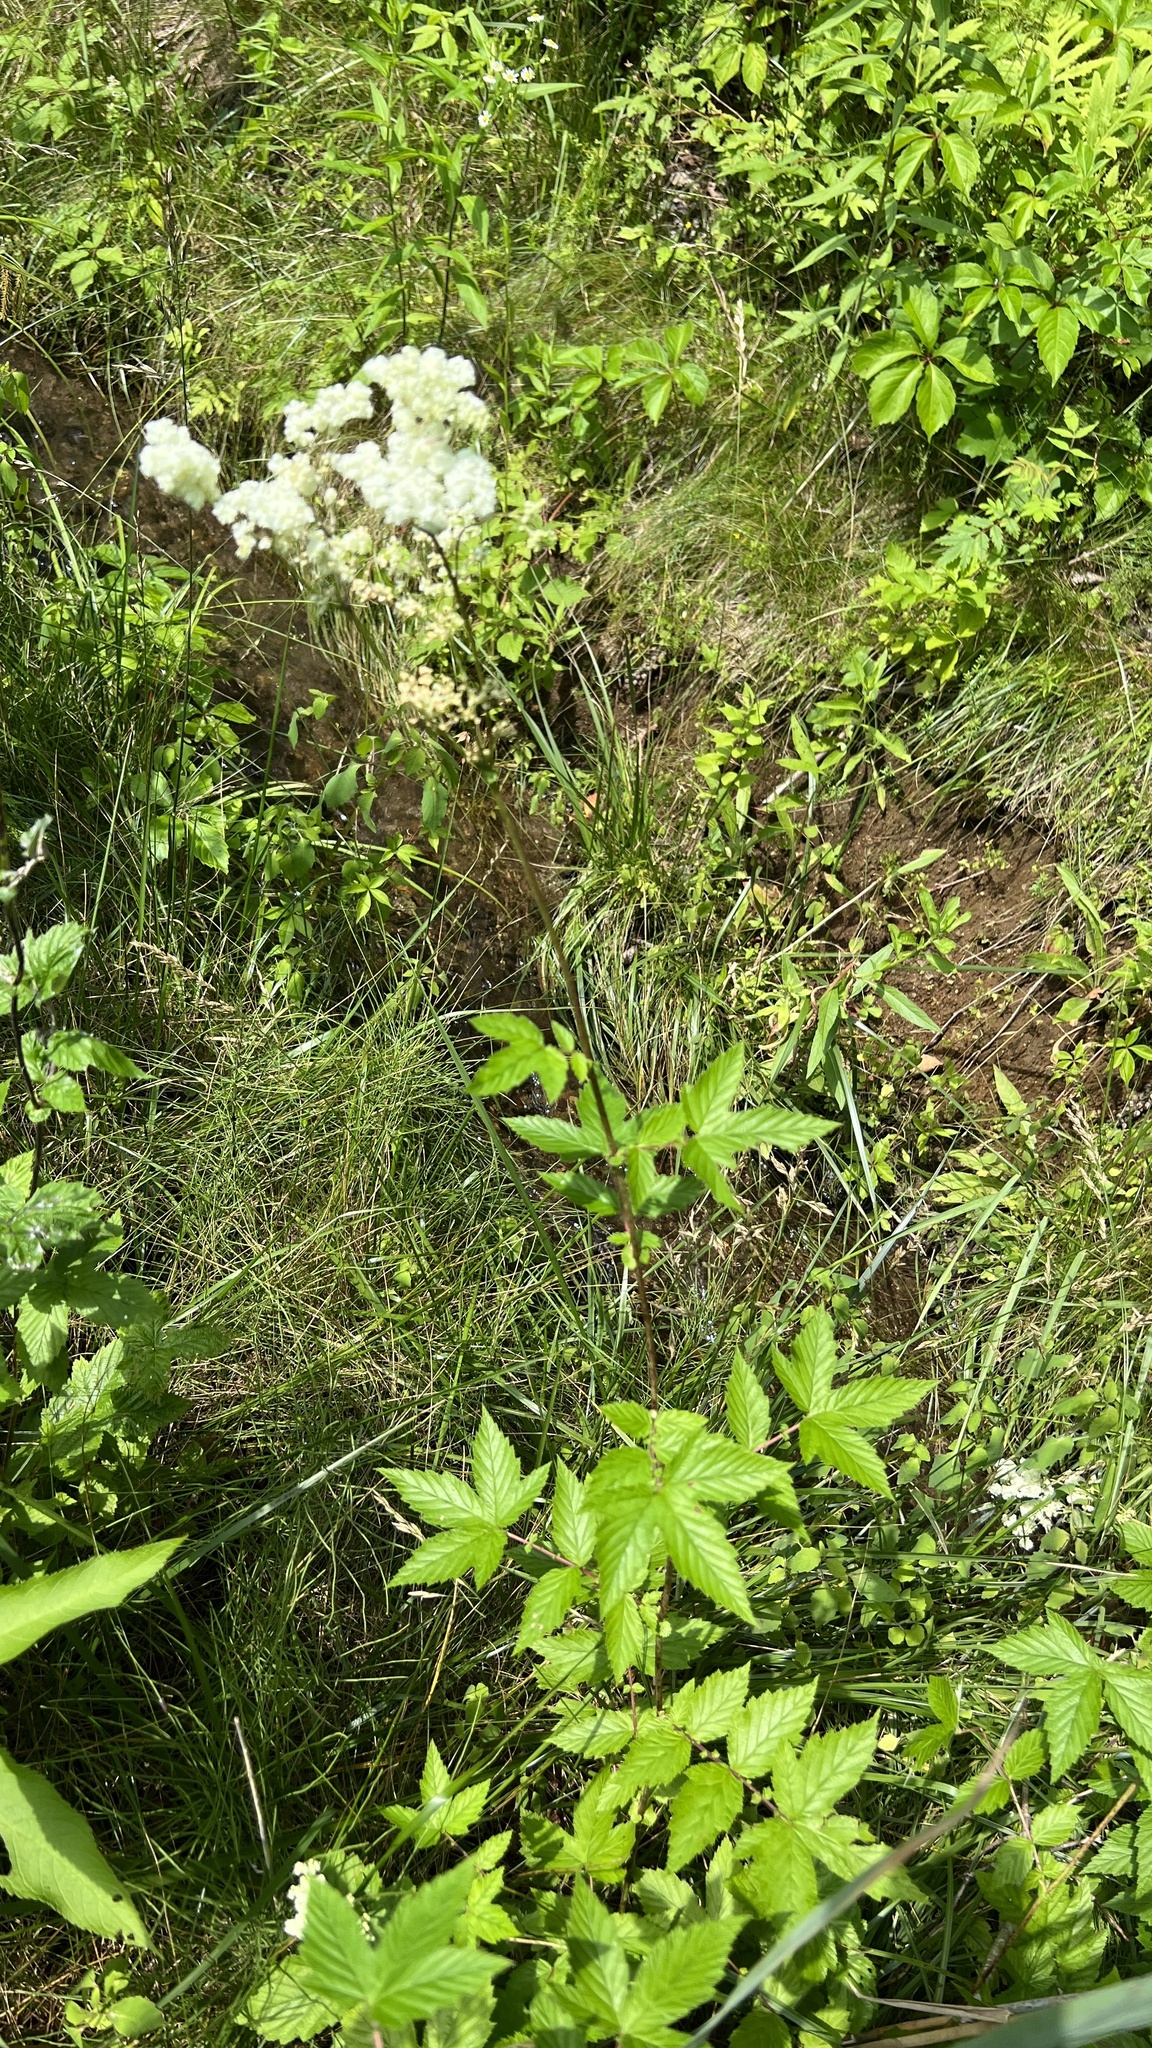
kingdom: Plantae
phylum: Tracheophyta
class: Magnoliopsida
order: Rosales
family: Rosaceae
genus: Filipendula
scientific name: Filipendula ulmaria
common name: Meadowsweet
